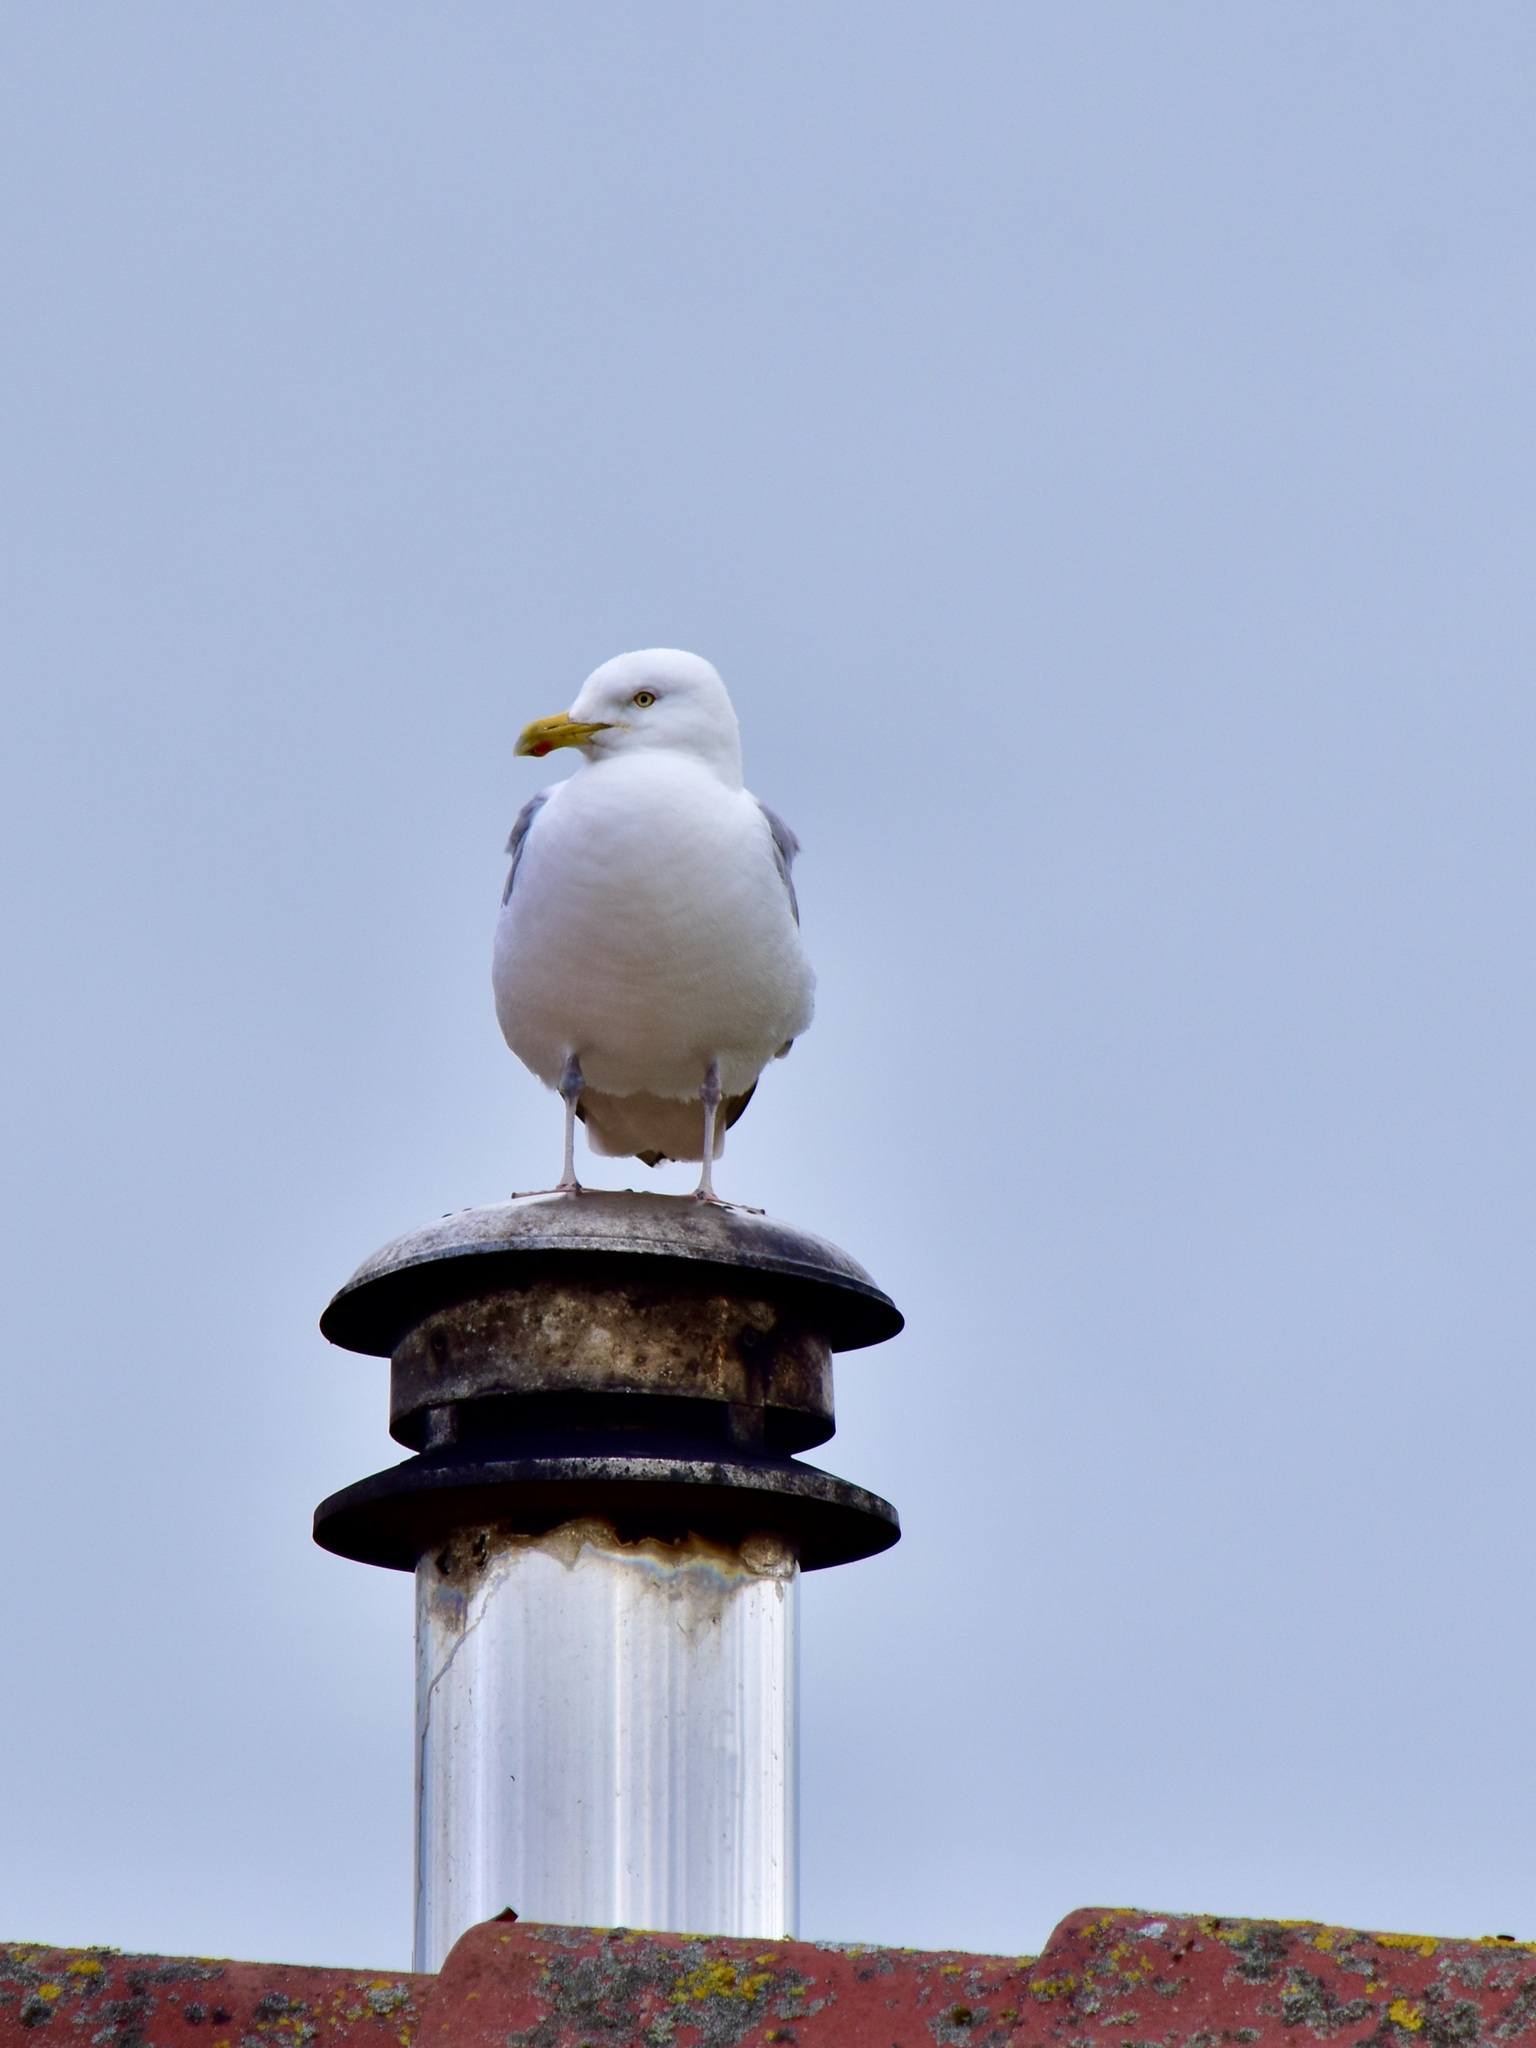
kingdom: Animalia
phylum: Chordata
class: Aves
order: Charadriiformes
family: Laridae
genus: Larus
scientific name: Larus argentatus
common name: Herring gull
